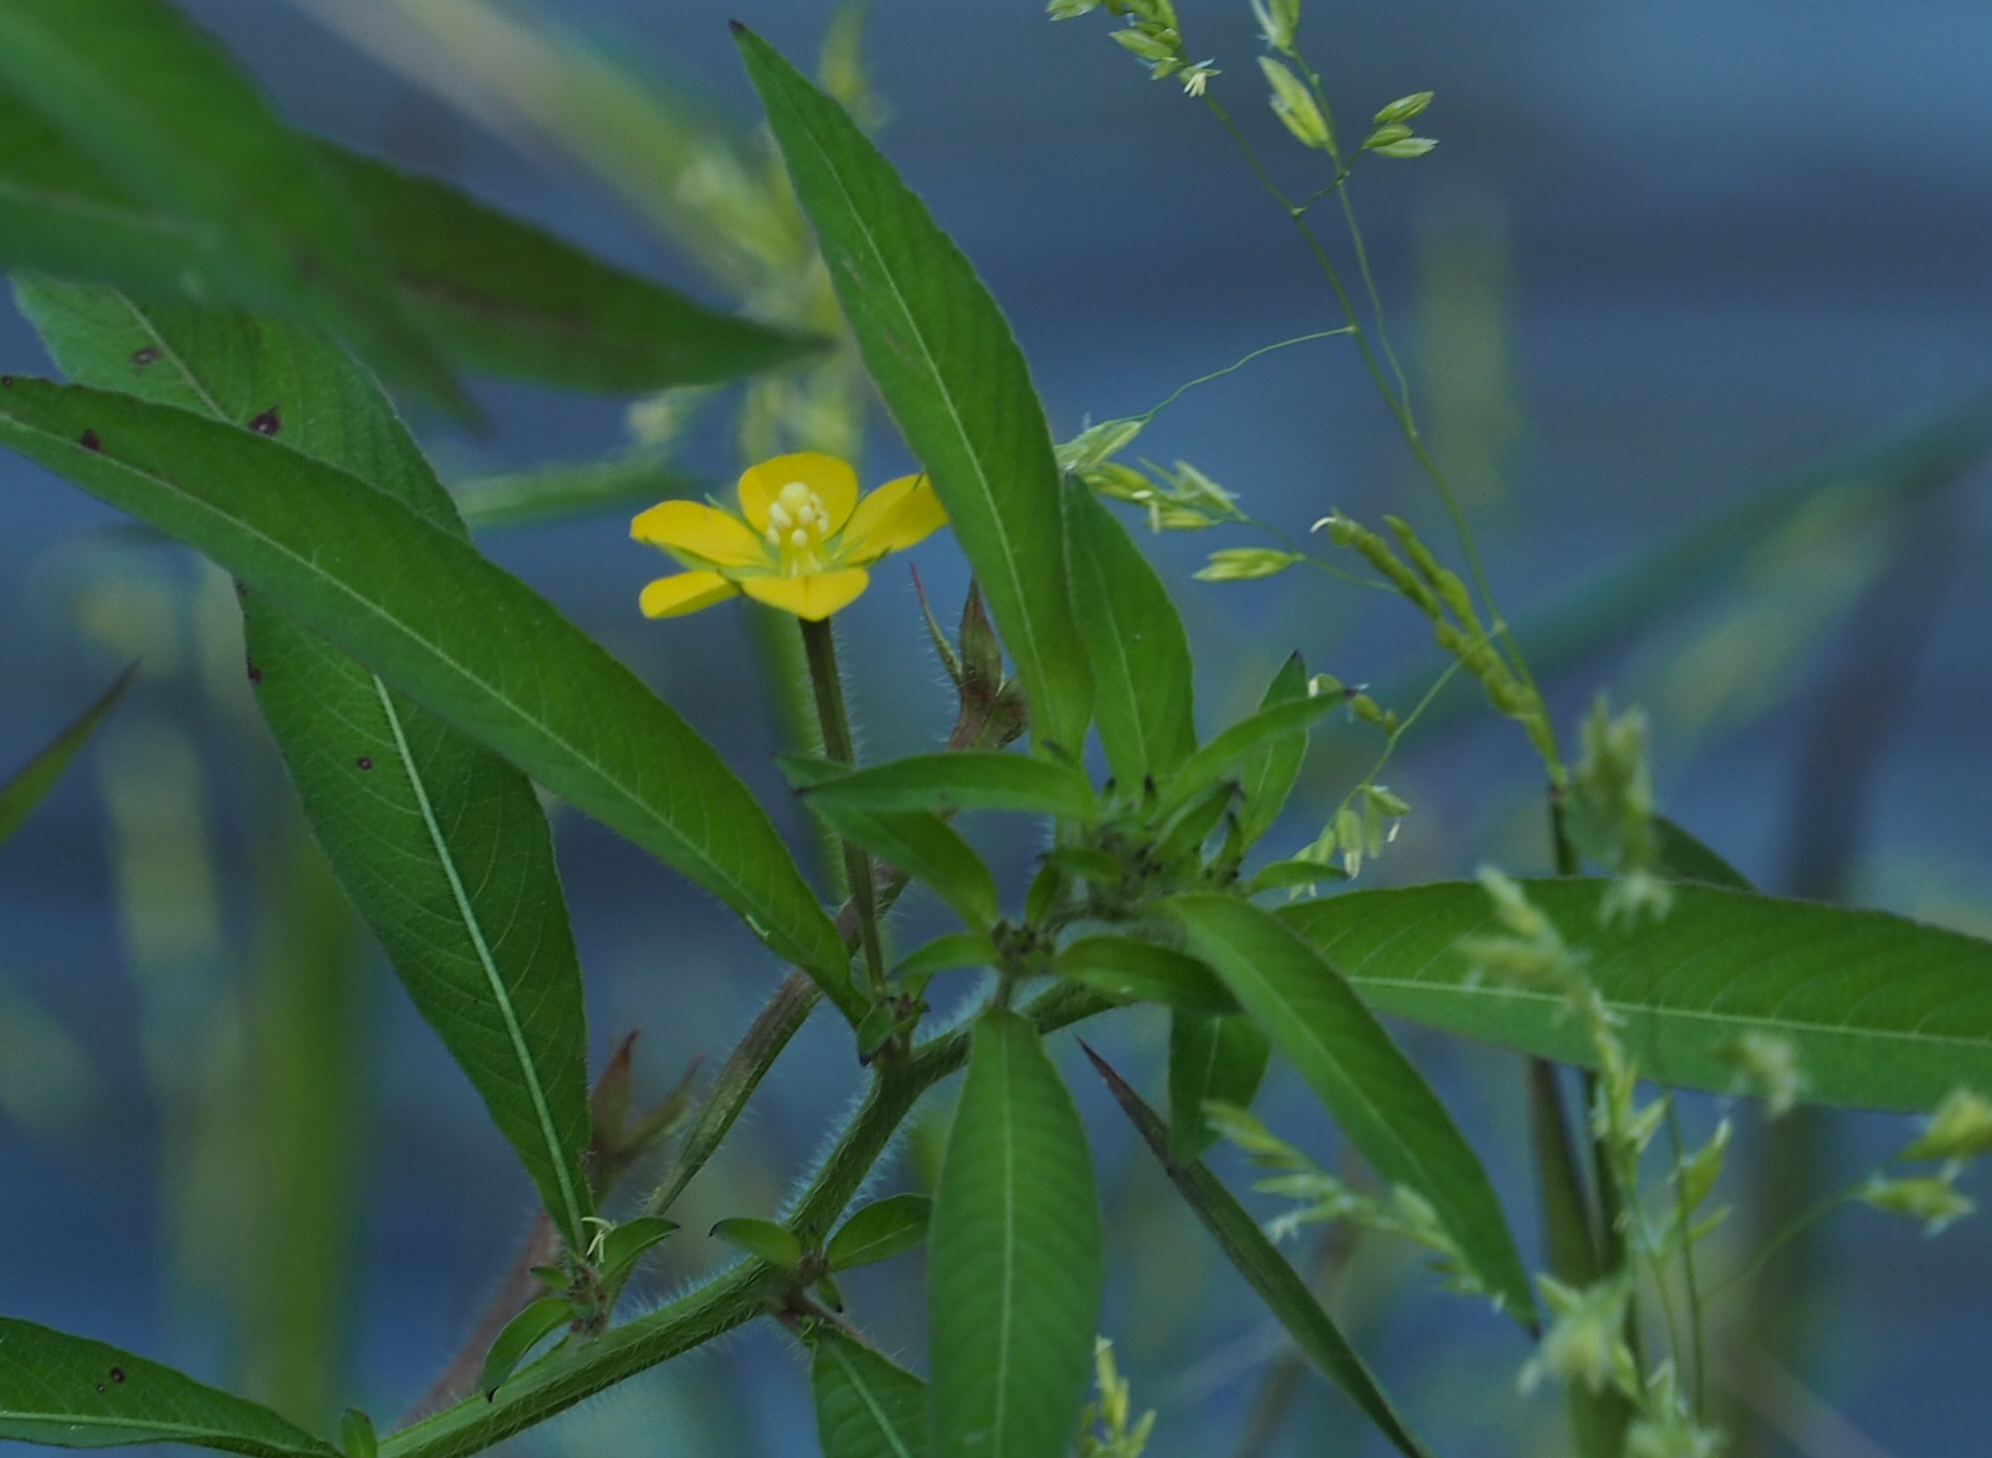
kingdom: Plantae
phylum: Tracheophyta
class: Magnoliopsida
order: Myrtales
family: Onagraceae
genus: Ludwigia
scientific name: Ludwigia leptocarpa
